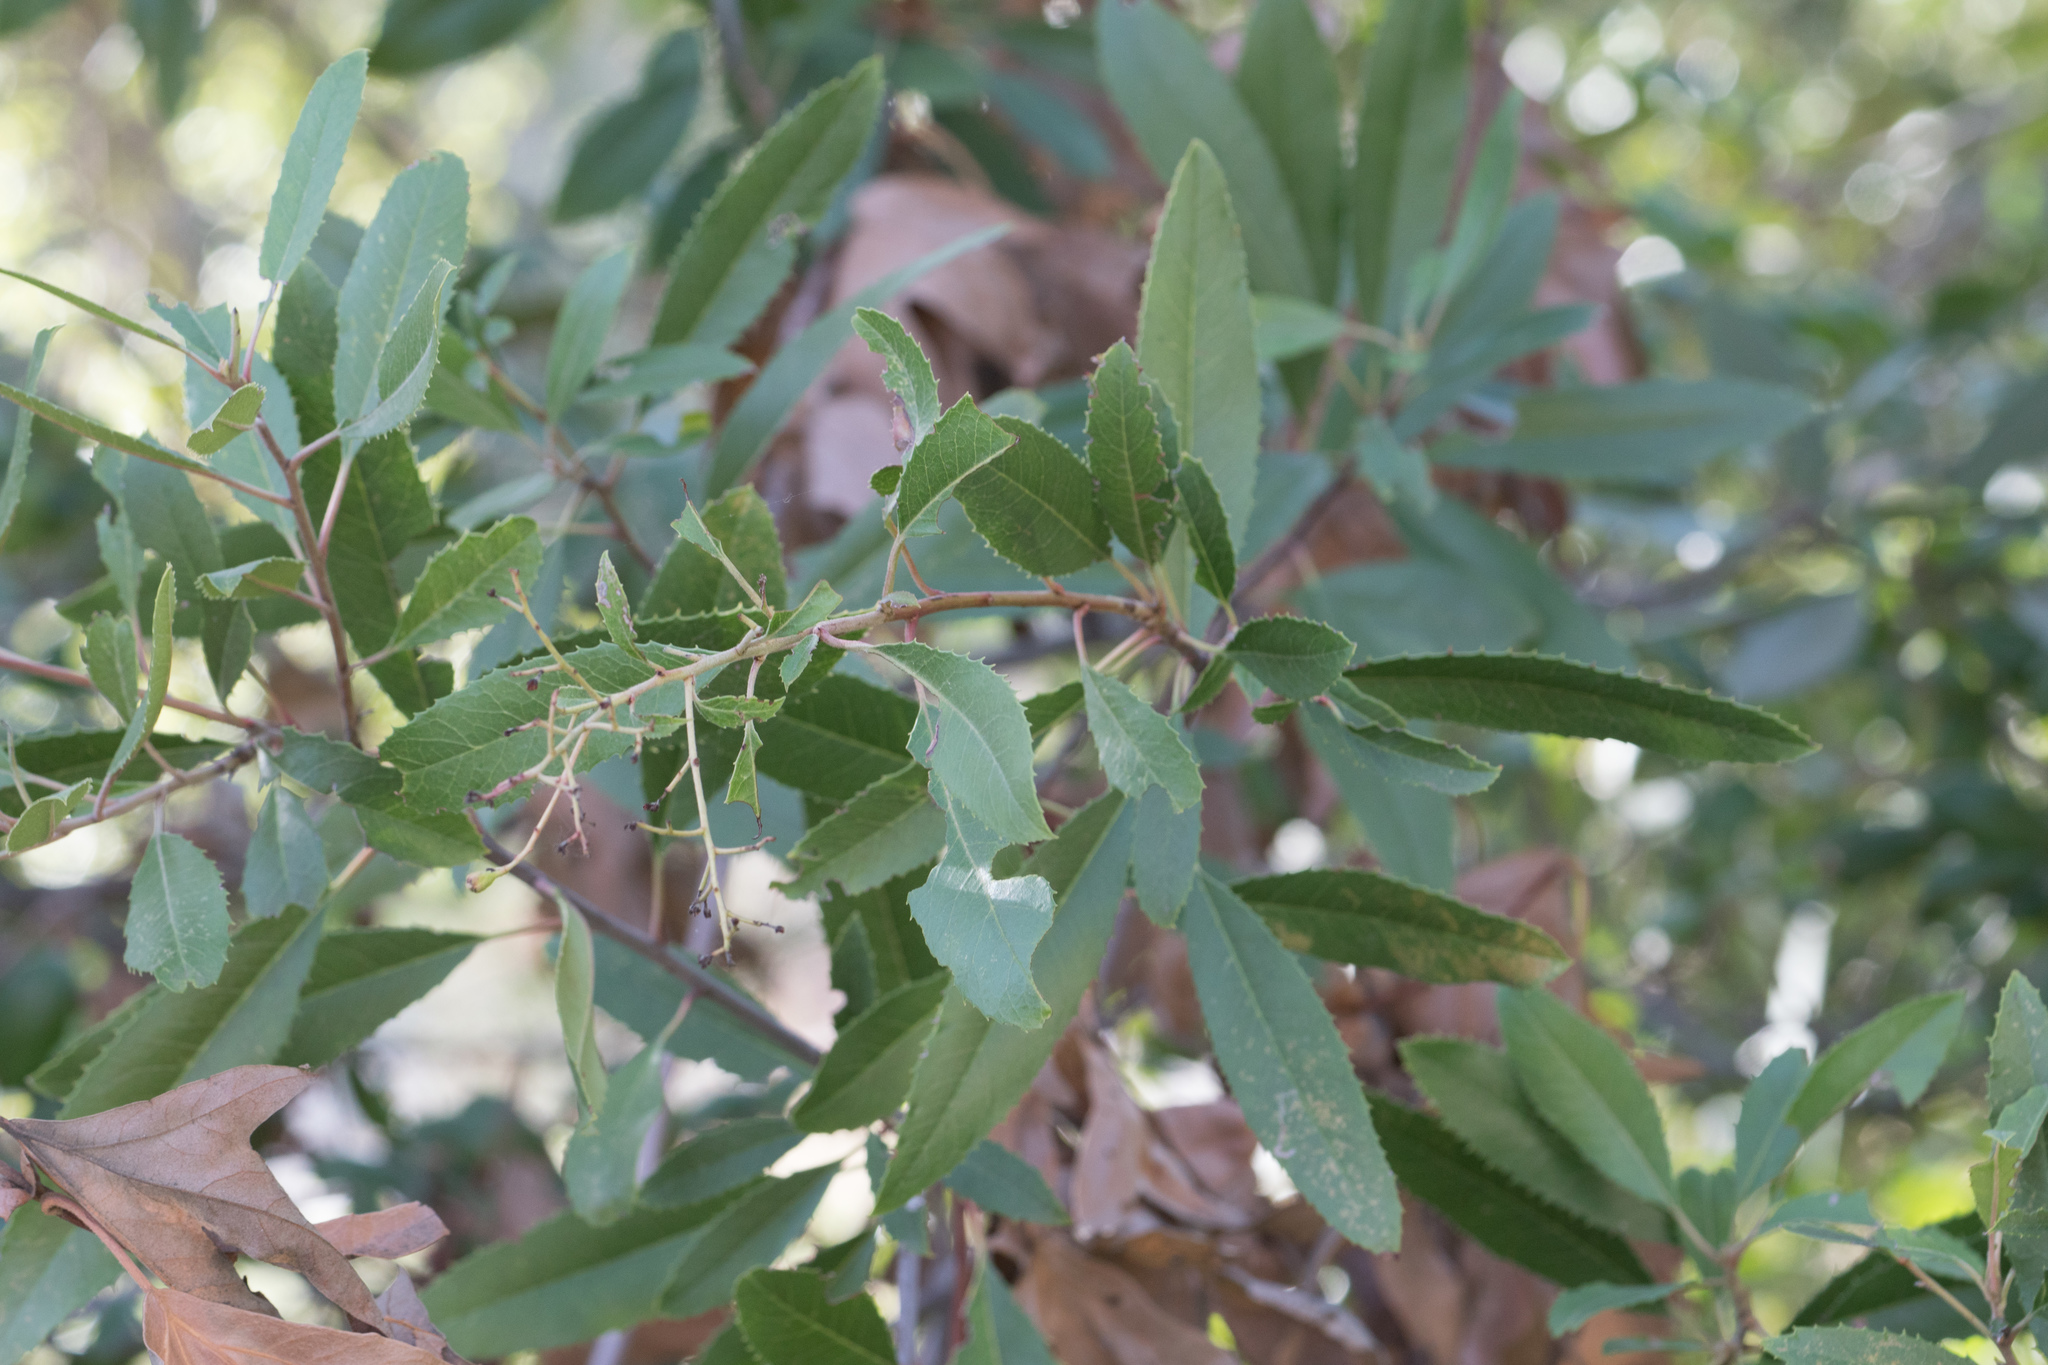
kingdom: Plantae
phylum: Tracheophyta
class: Magnoliopsida
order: Rosales
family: Rosaceae
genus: Heteromeles
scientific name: Heteromeles arbutifolia
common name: California-holly
